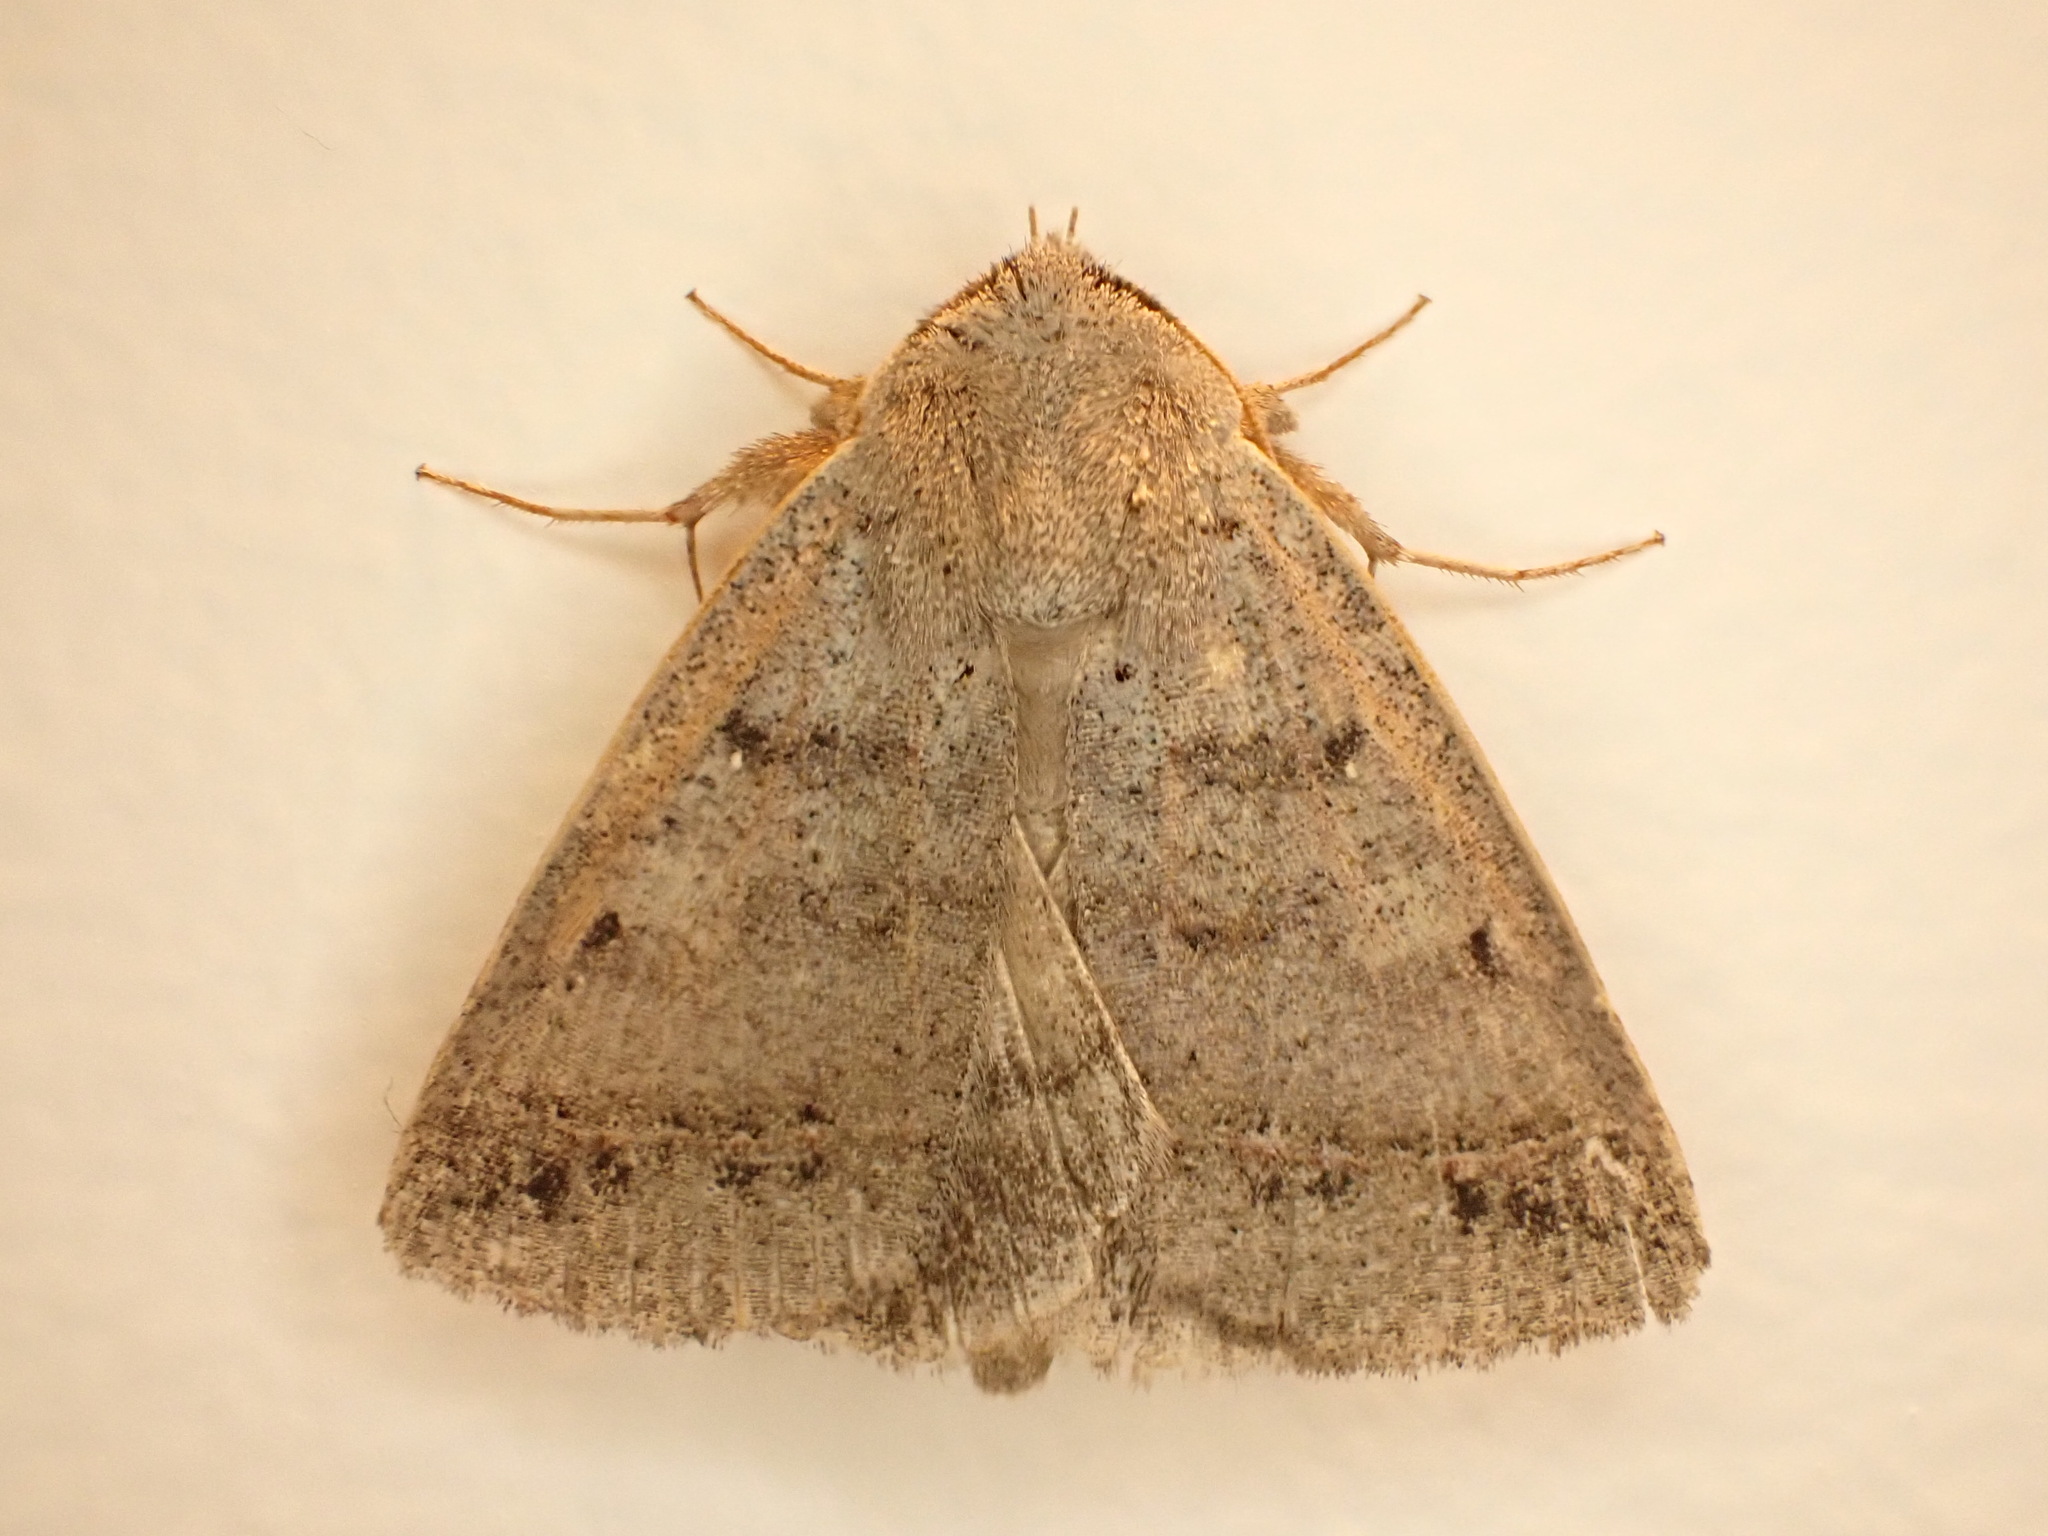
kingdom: Animalia
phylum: Arthropoda
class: Insecta
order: Lepidoptera
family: Erebidae
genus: Pantydia
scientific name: Pantydia sparsa
